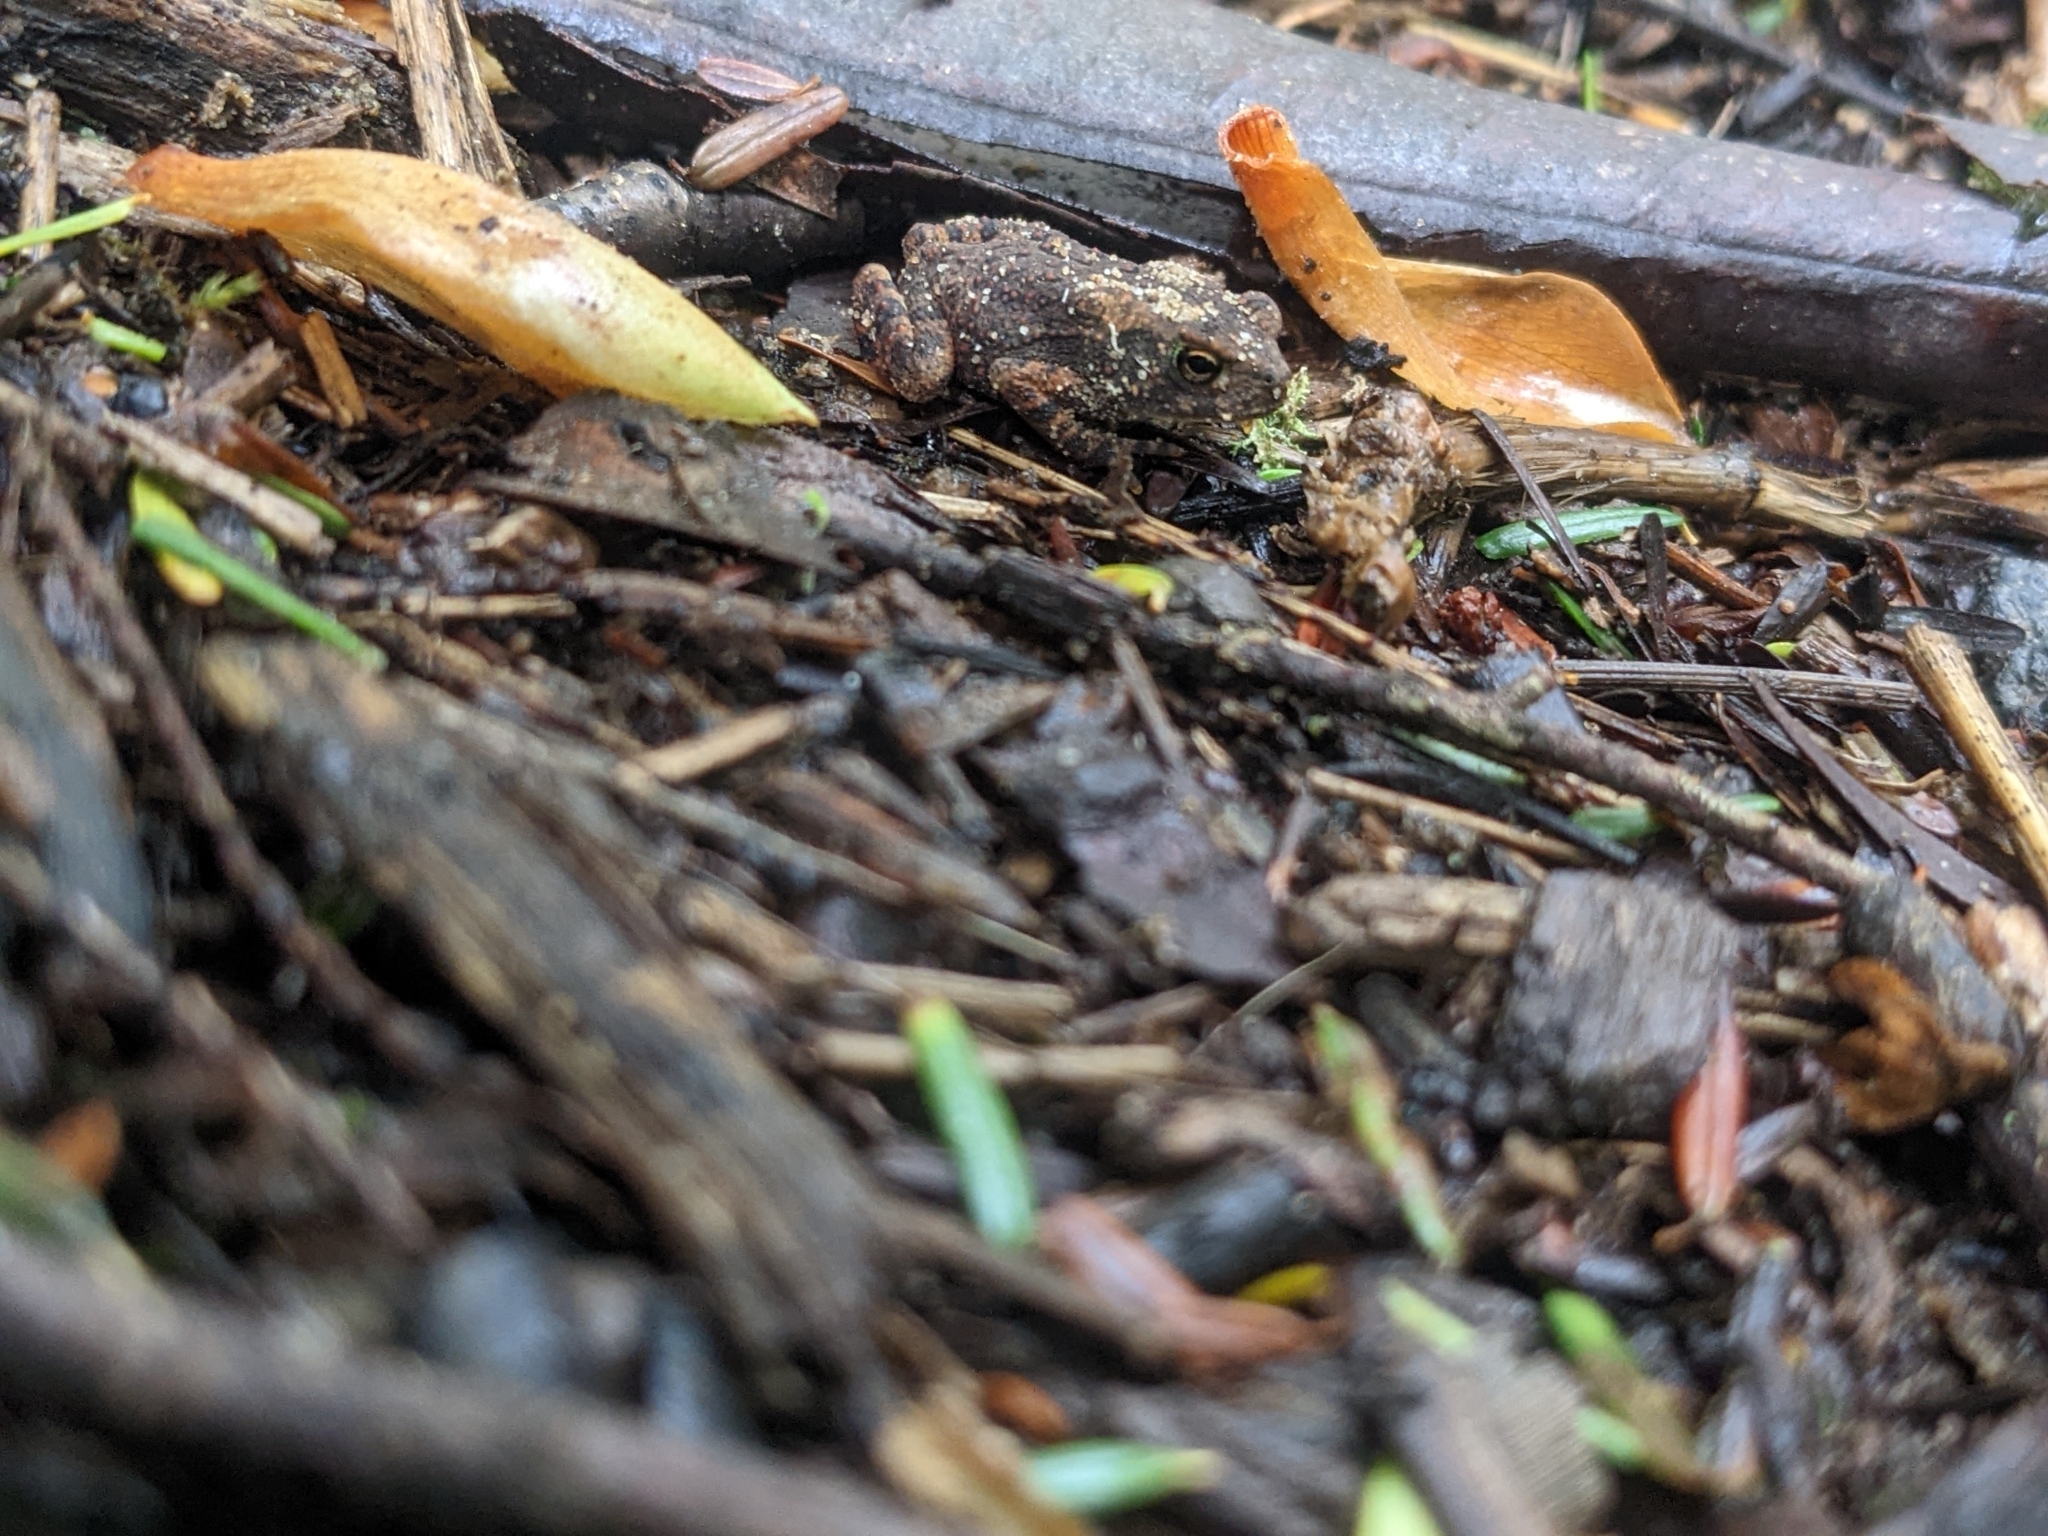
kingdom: Animalia
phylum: Chordata
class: Amphibia
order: Anura
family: Bufonidae
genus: Anaxyrus
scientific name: Anaxyrus americanus
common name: American toad
